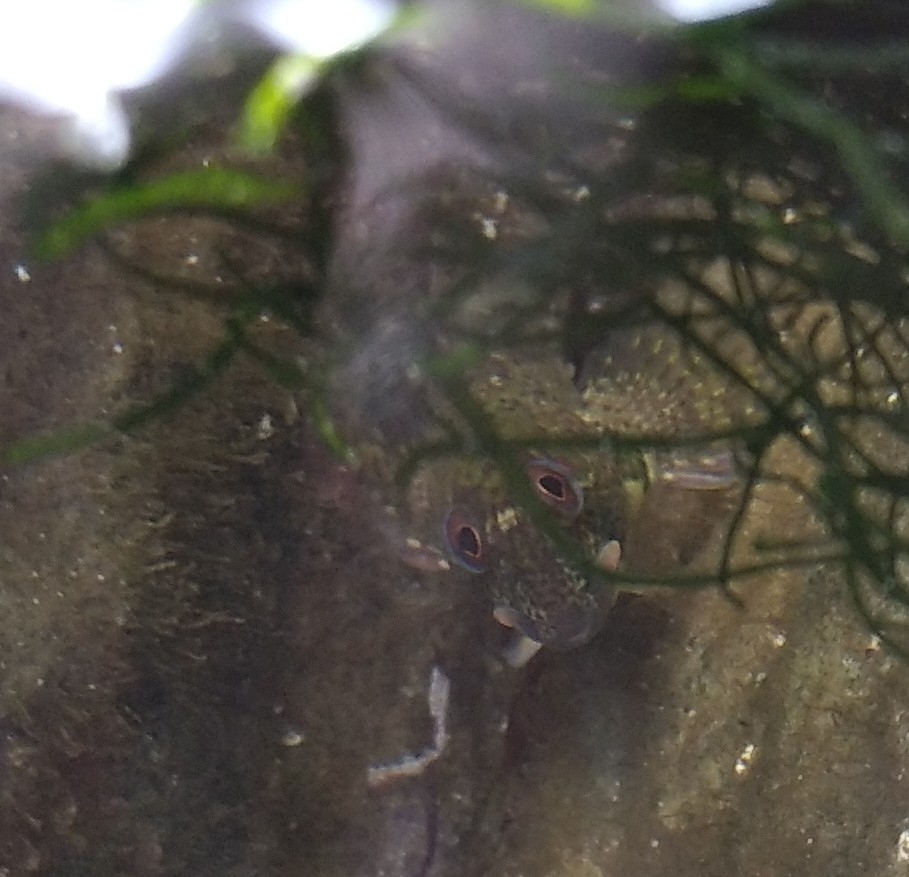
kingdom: Animalia
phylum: Chordata
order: Perciformes
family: Blenniidae
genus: Lipophrys
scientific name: Lipophrys pholis
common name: Shanny
